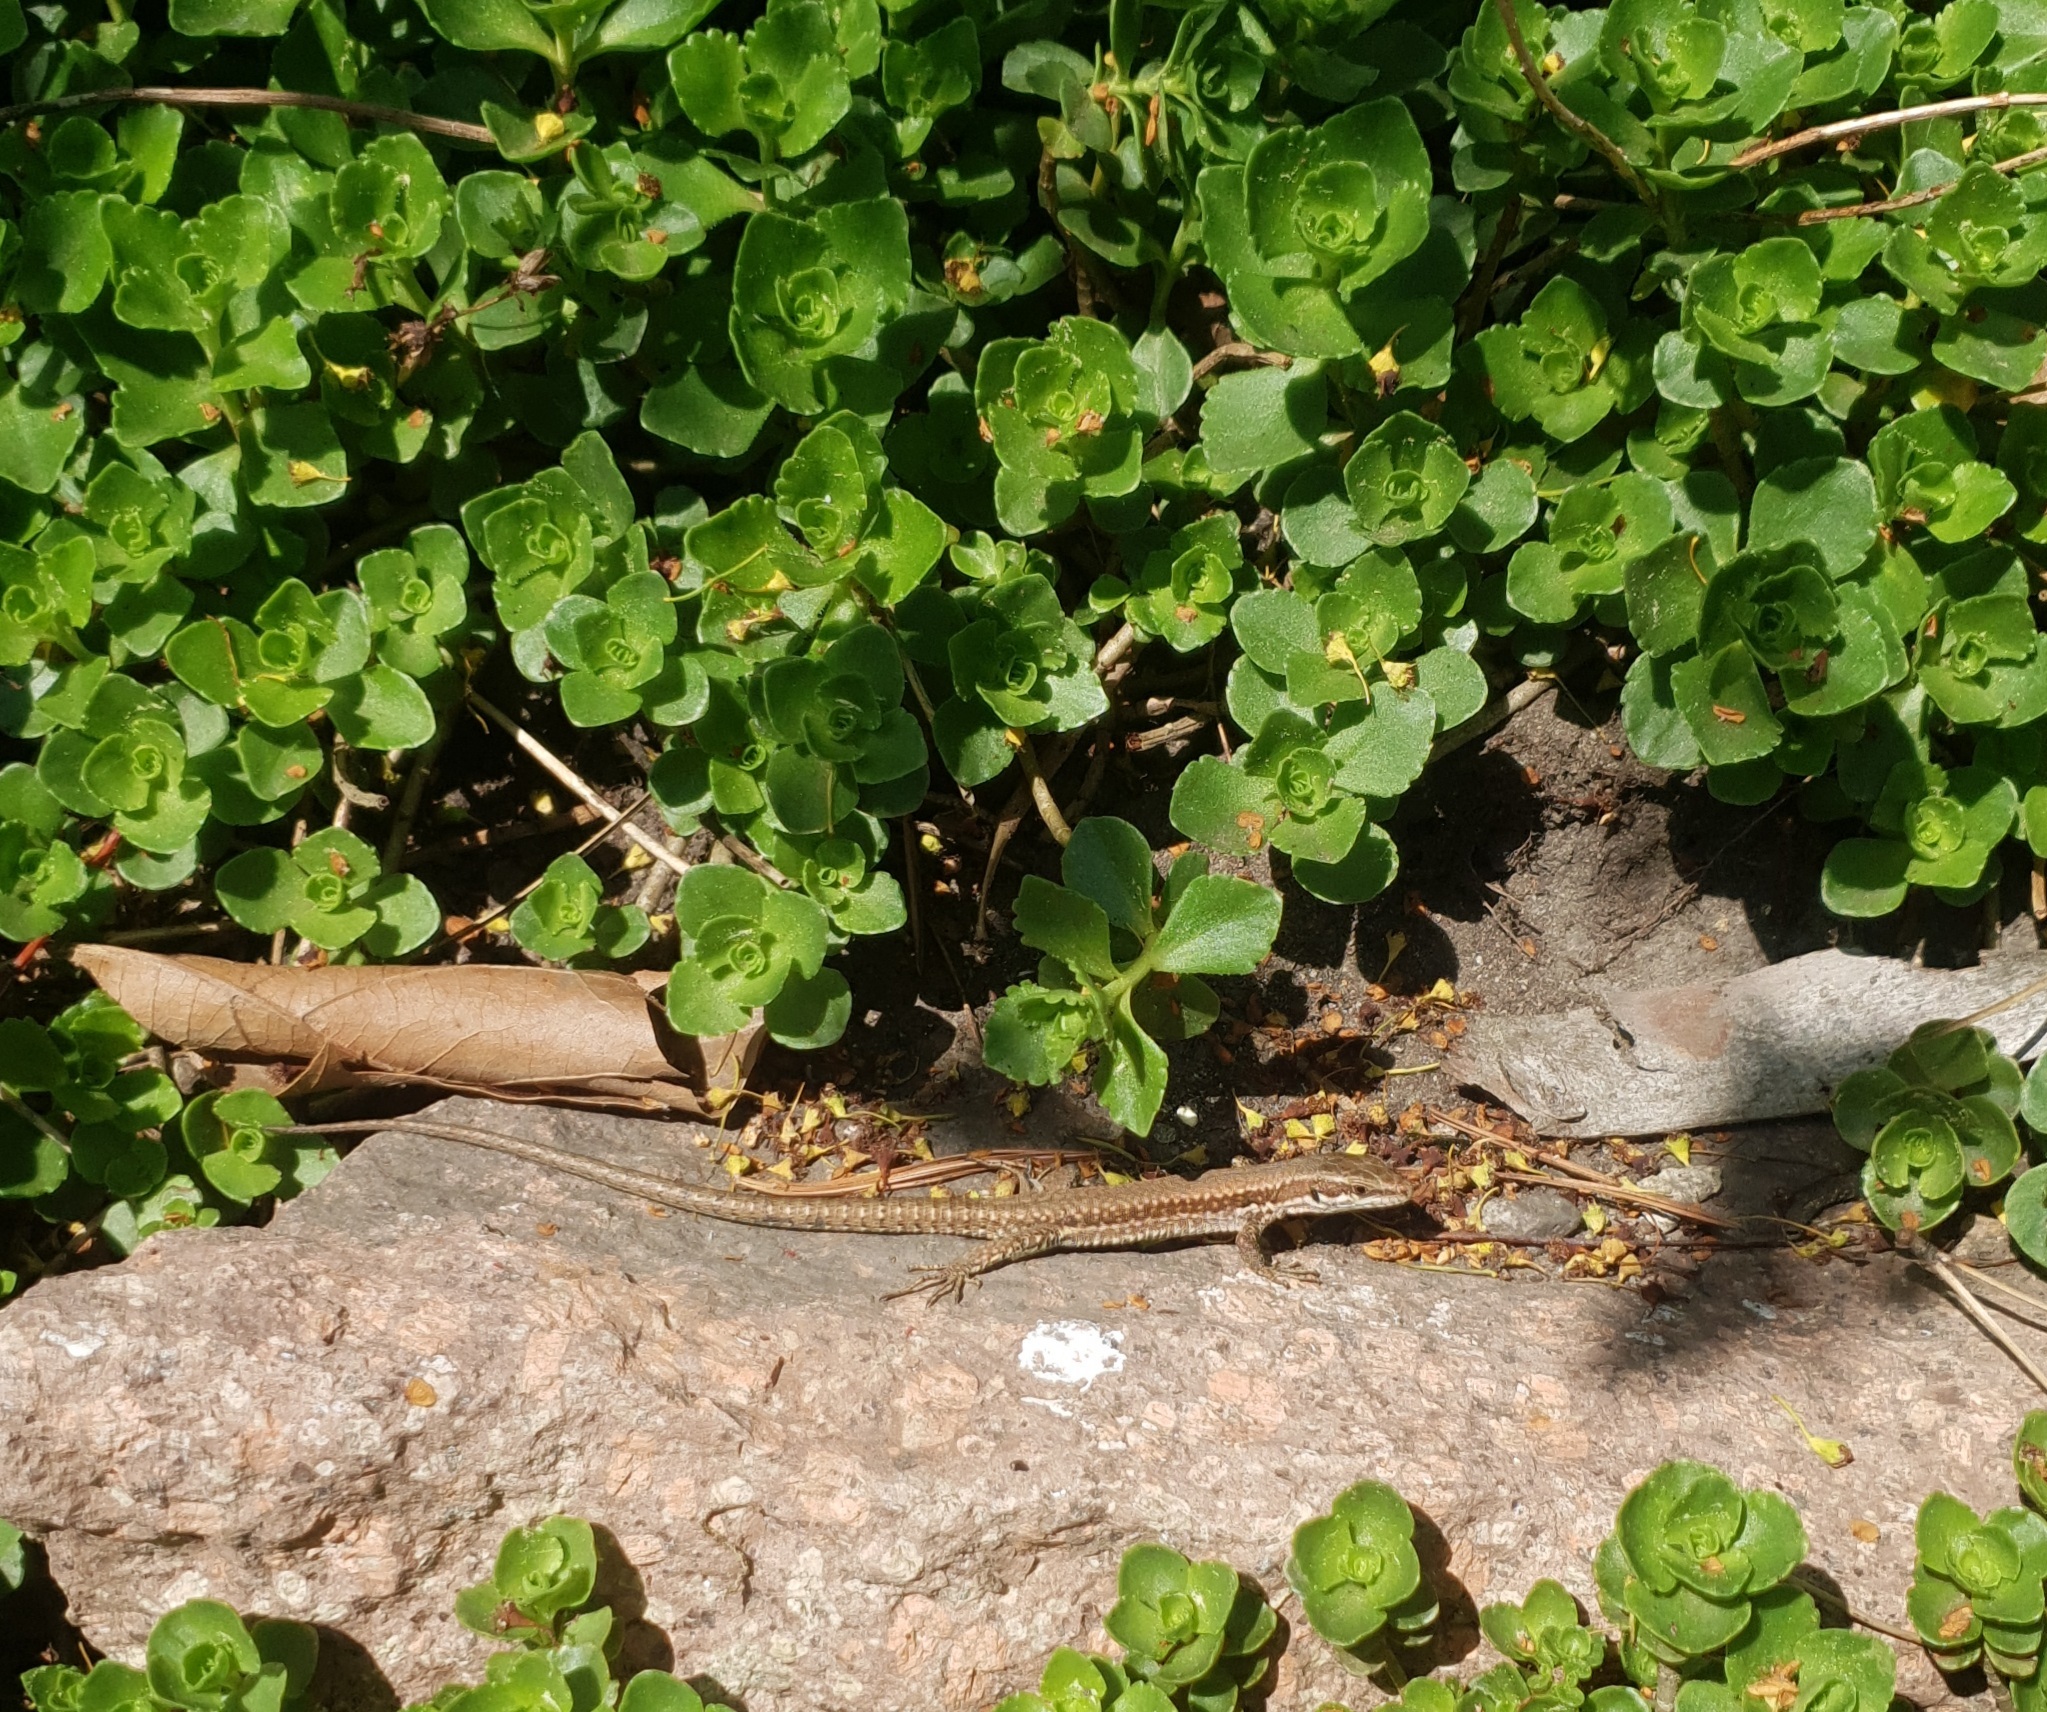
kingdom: Animalia
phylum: Chordata
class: Squamata
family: Lacertidae
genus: Podarcis
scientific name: Podarcis muralis
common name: Common wall lizard
